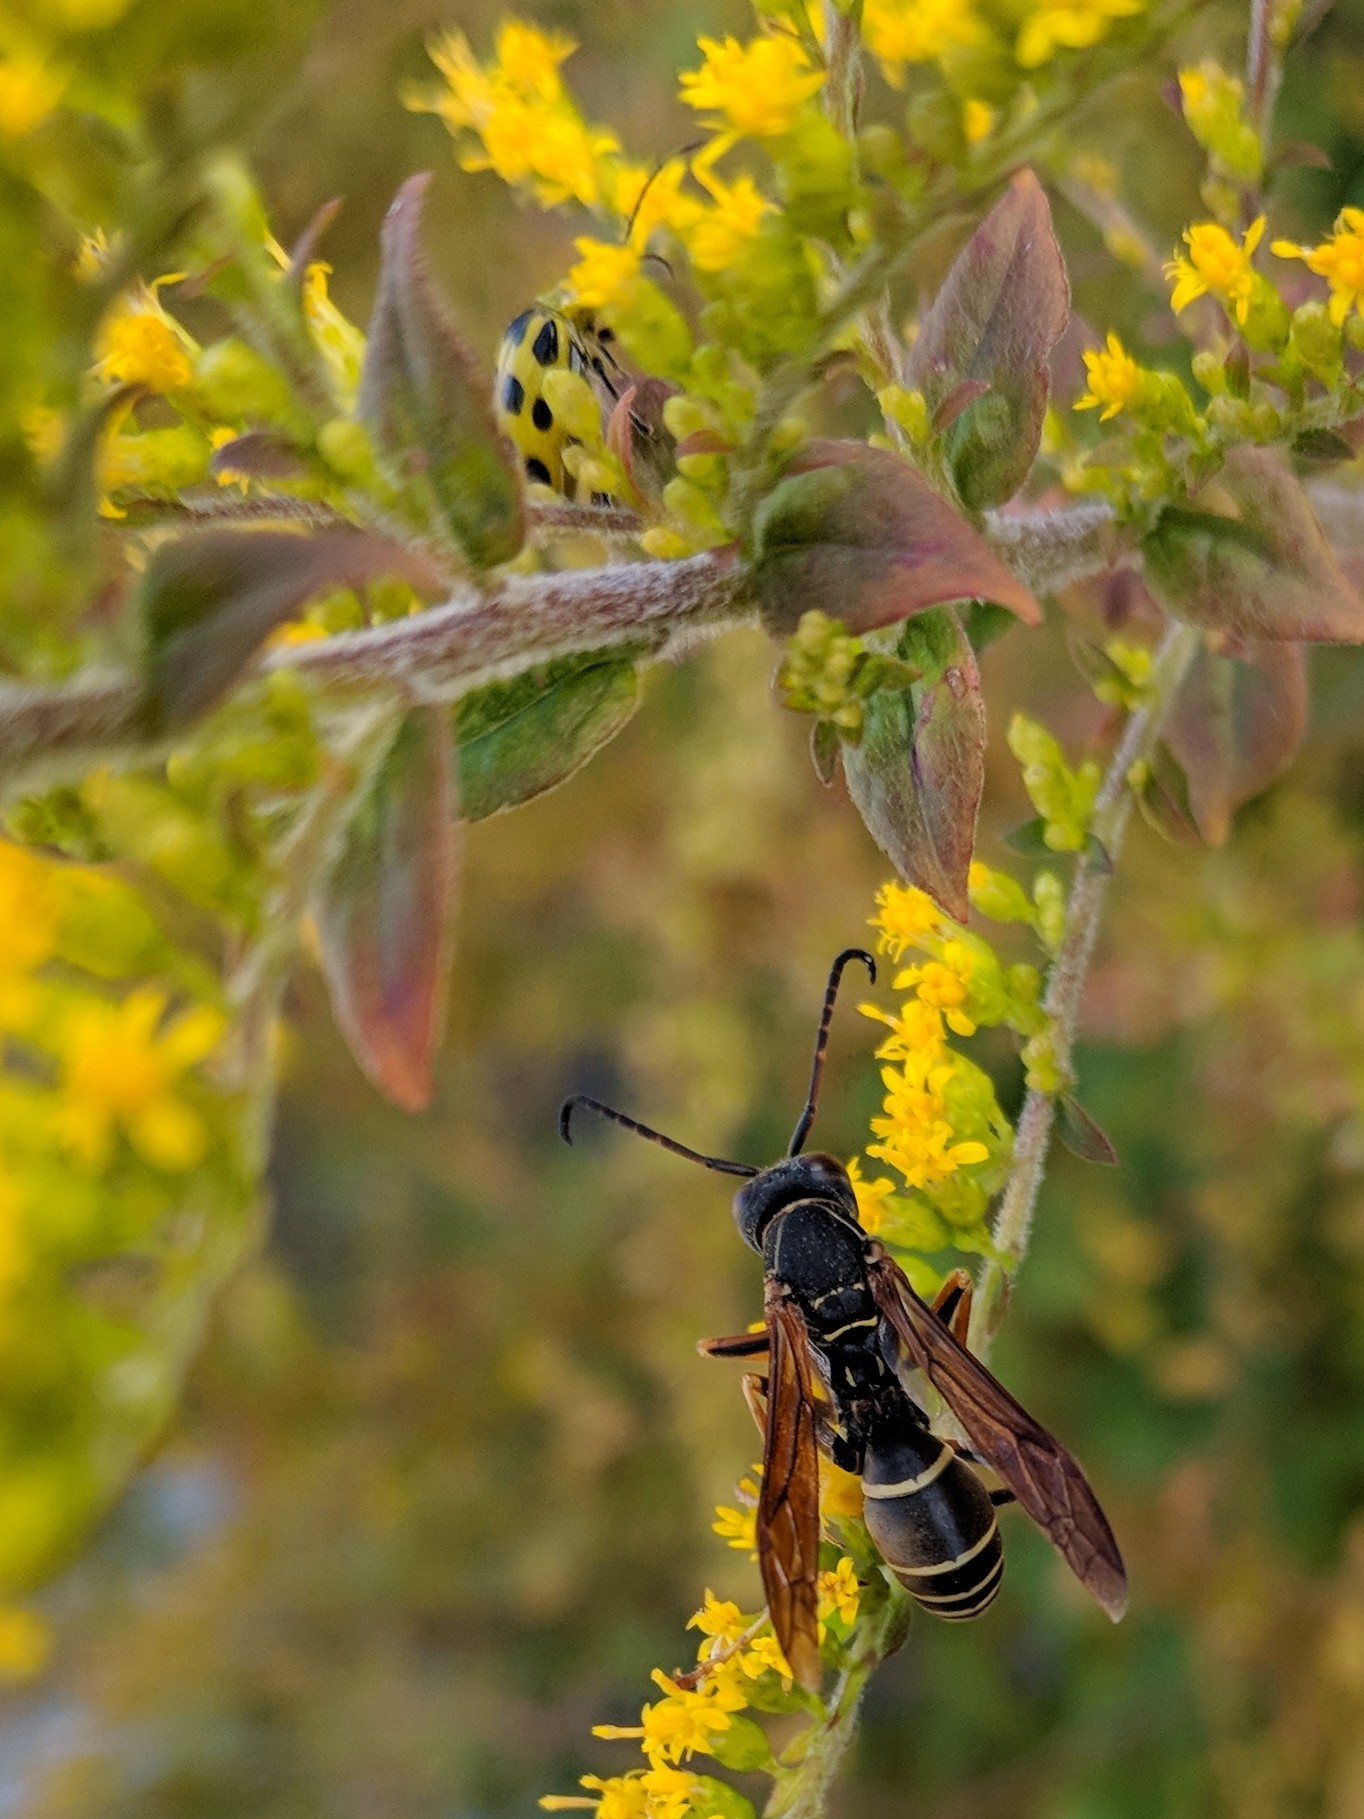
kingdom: Animalia
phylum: Arthropoda
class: Insecta
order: Hymenoptera
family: Eumenidae
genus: Polistes
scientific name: Polistes fuscatus
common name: Dark paper wasp
